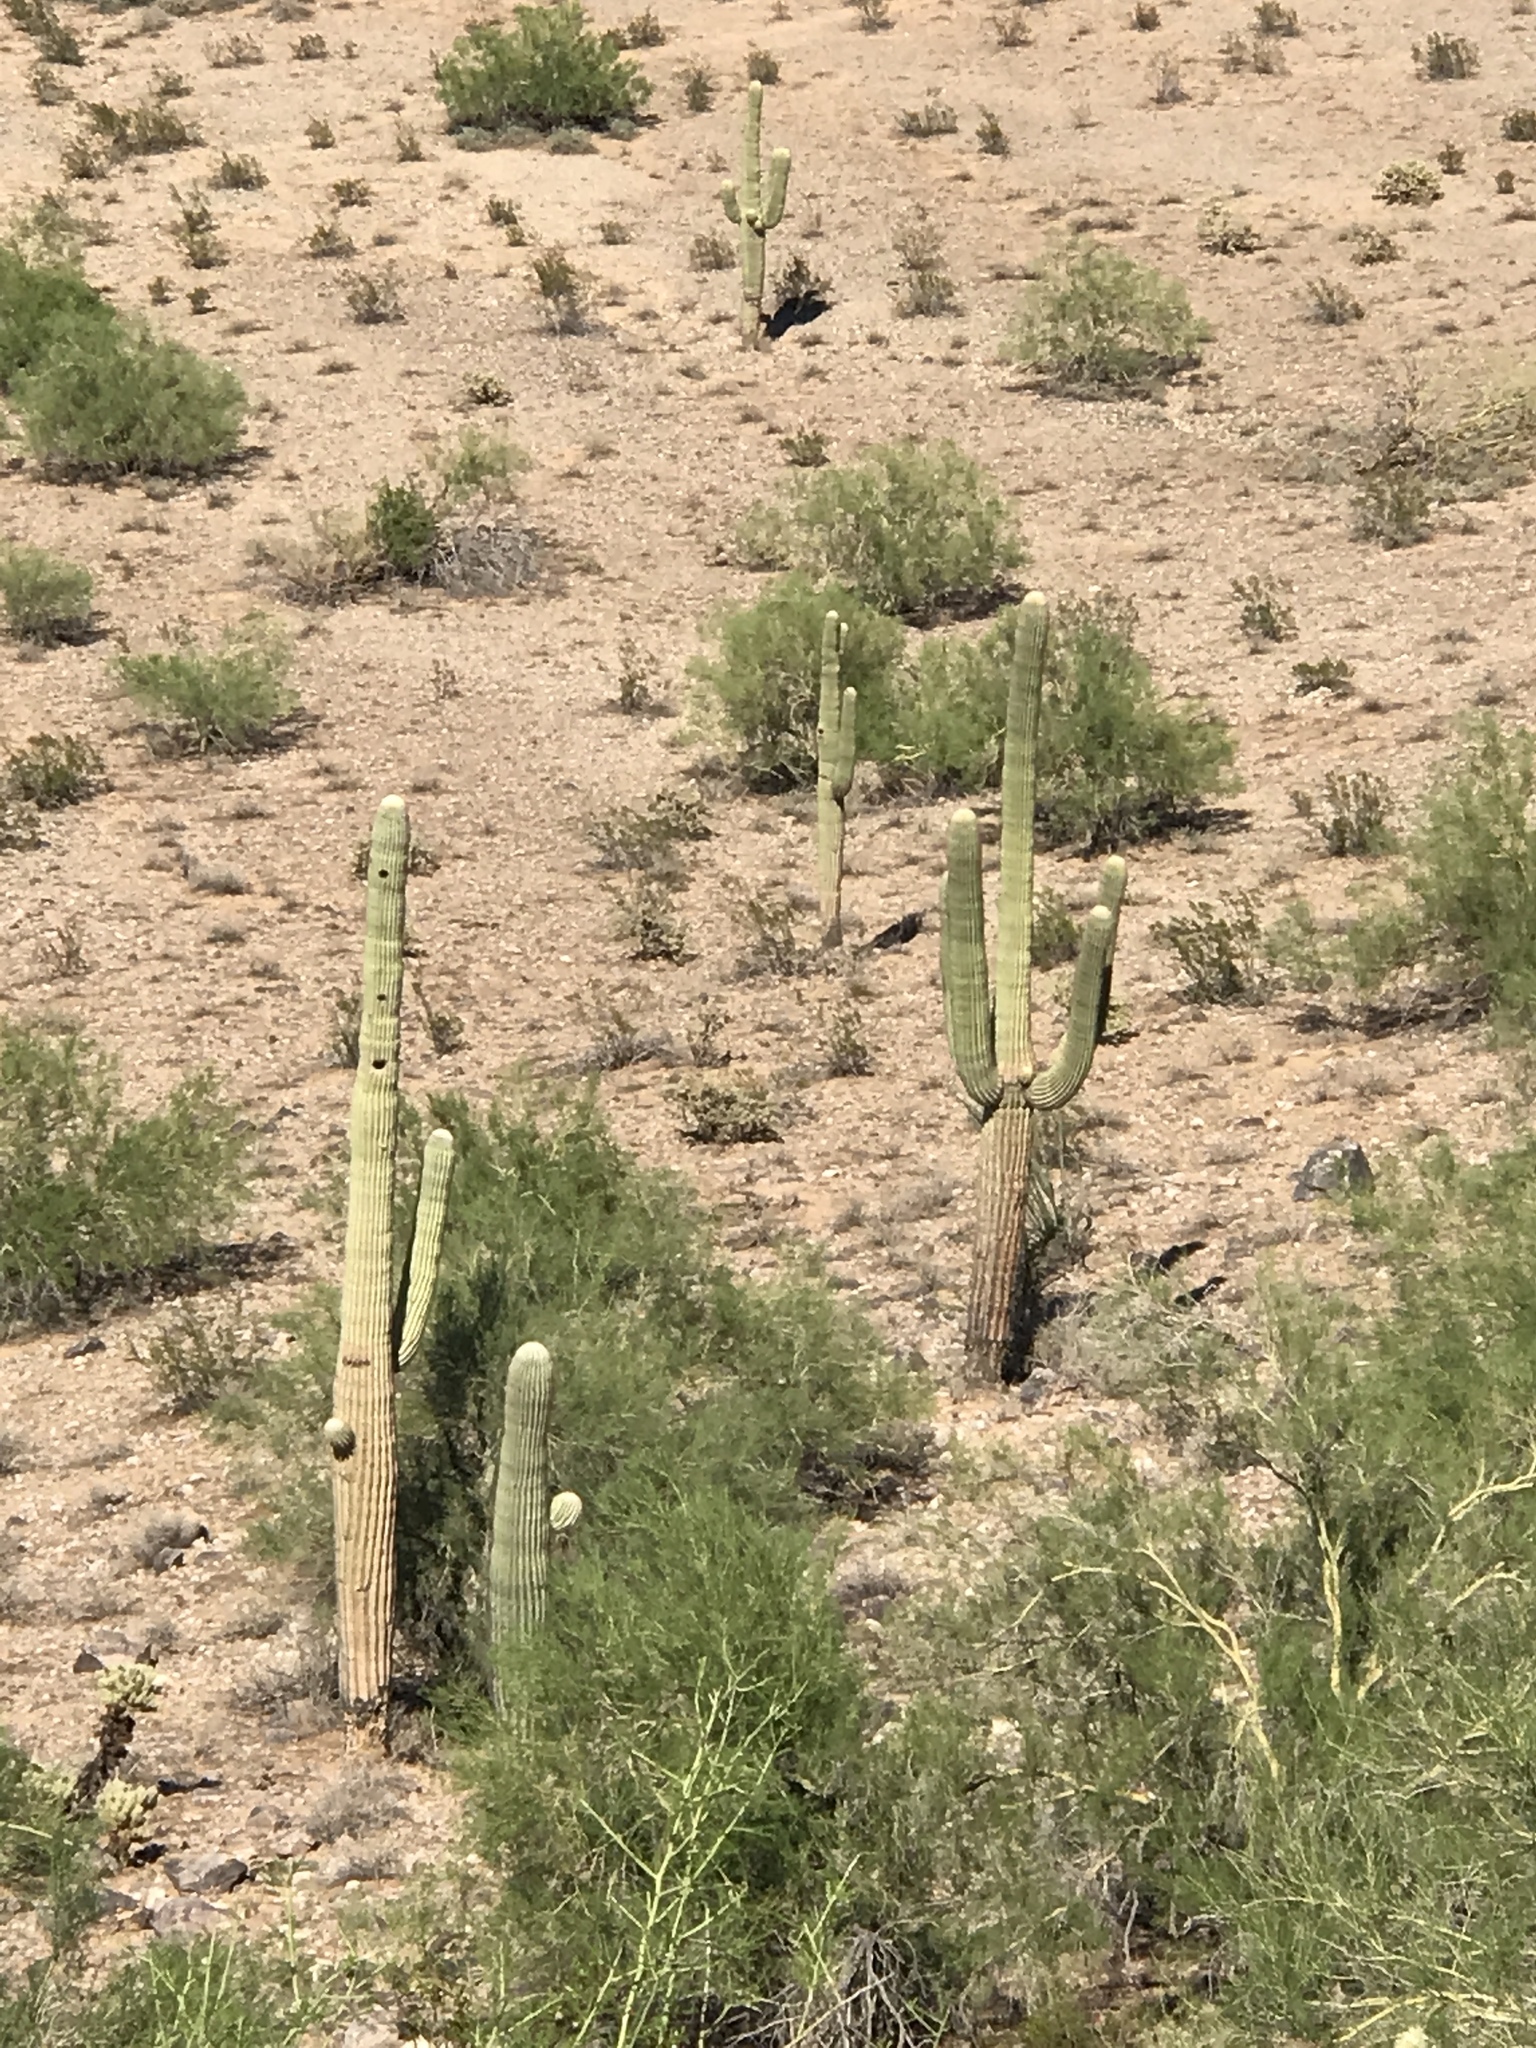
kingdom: Plantae
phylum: Tracheophyta
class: Magnoliopsida
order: Caryophyllales
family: Cactaceae
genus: Carnegiea
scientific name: Carnegiea gigantea
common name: Saguaro
